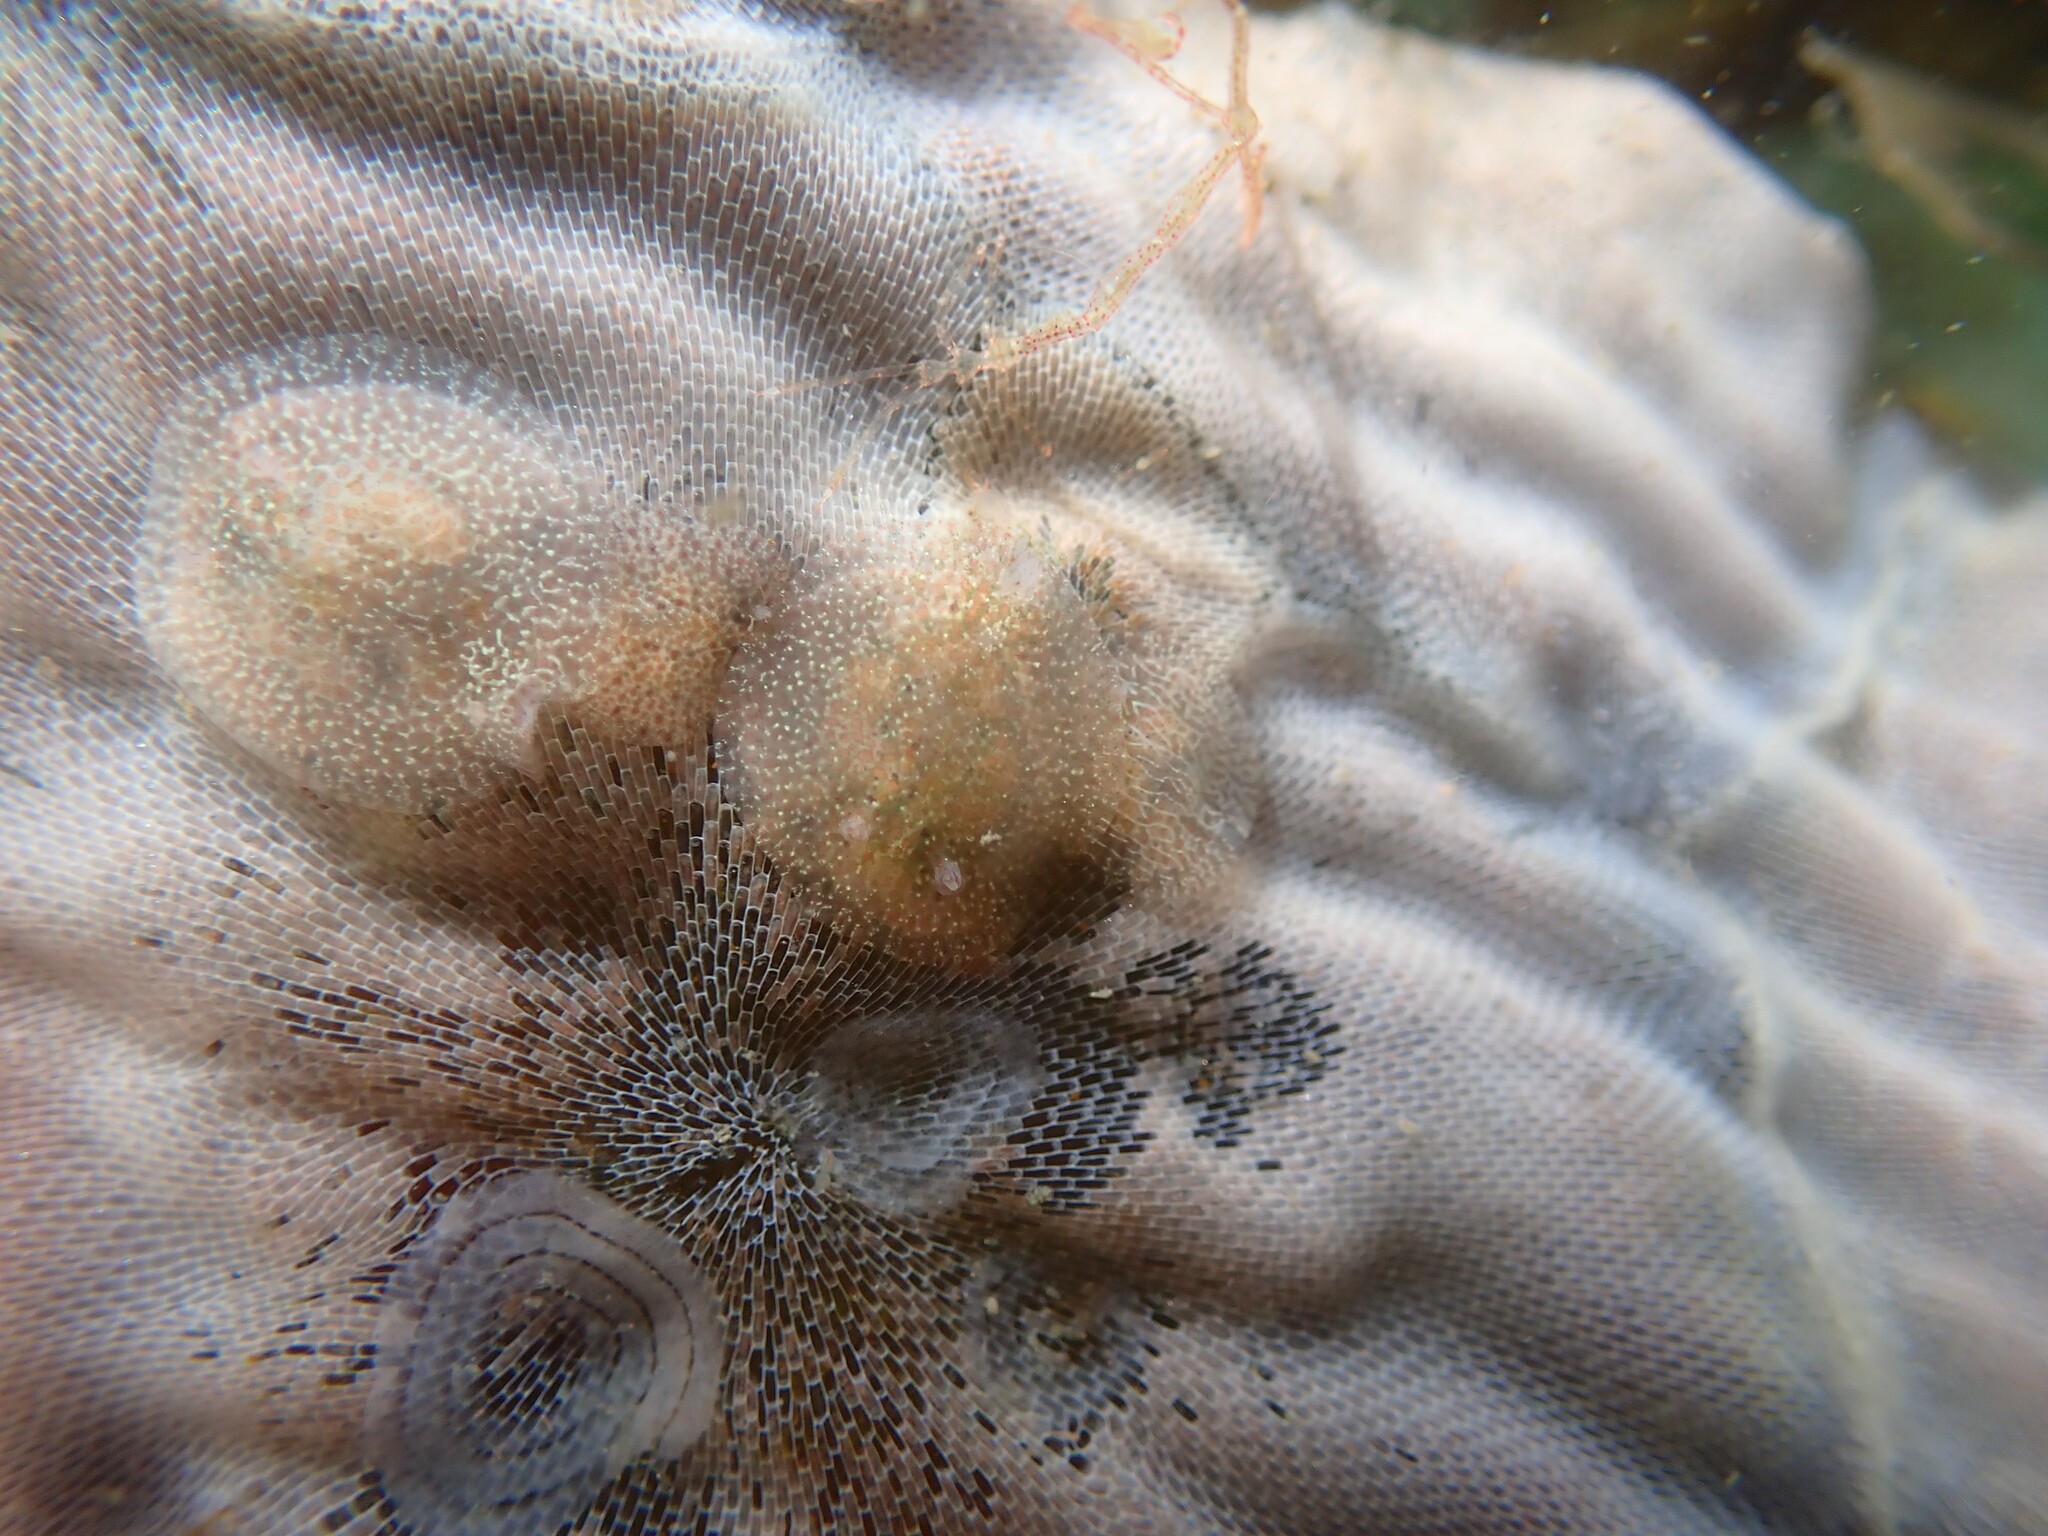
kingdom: Animalia
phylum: Mollusca
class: Gastropoda
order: Nudibranchia
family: Corambidae
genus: Corambe
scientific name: Corambe pacifica
